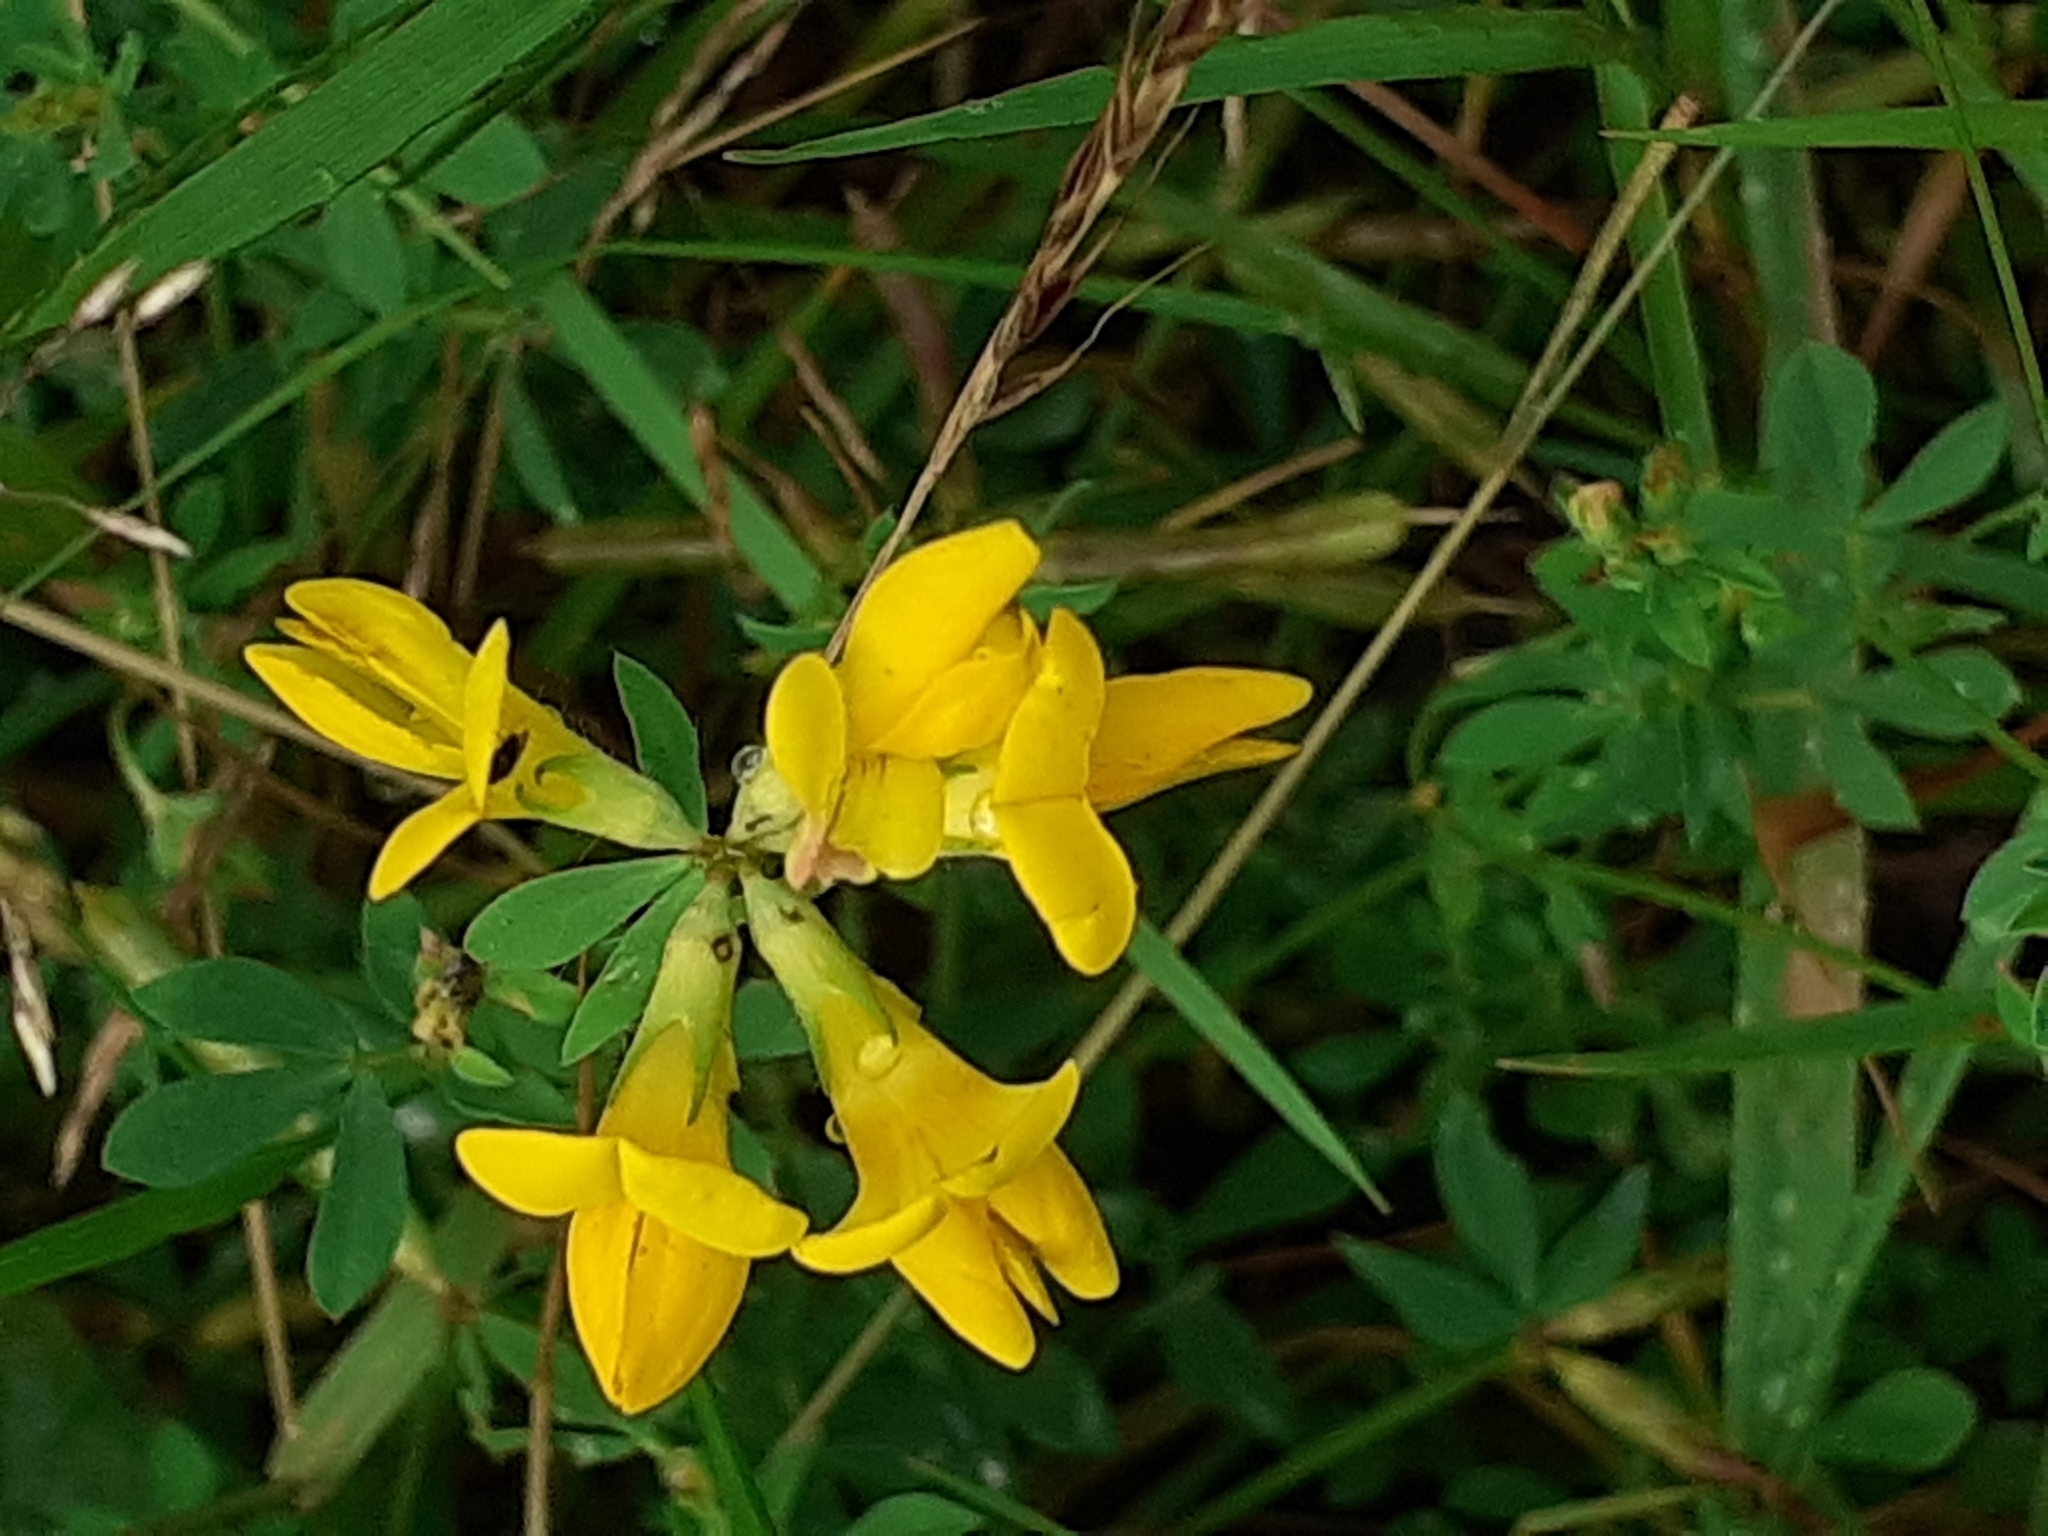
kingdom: Plantae
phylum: Tracheophyta
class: Magnoliopsida
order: Fabales
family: Fabaceae
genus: Lotus
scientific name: Lotus corniculatus
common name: Common bird's-foot-trefoil
